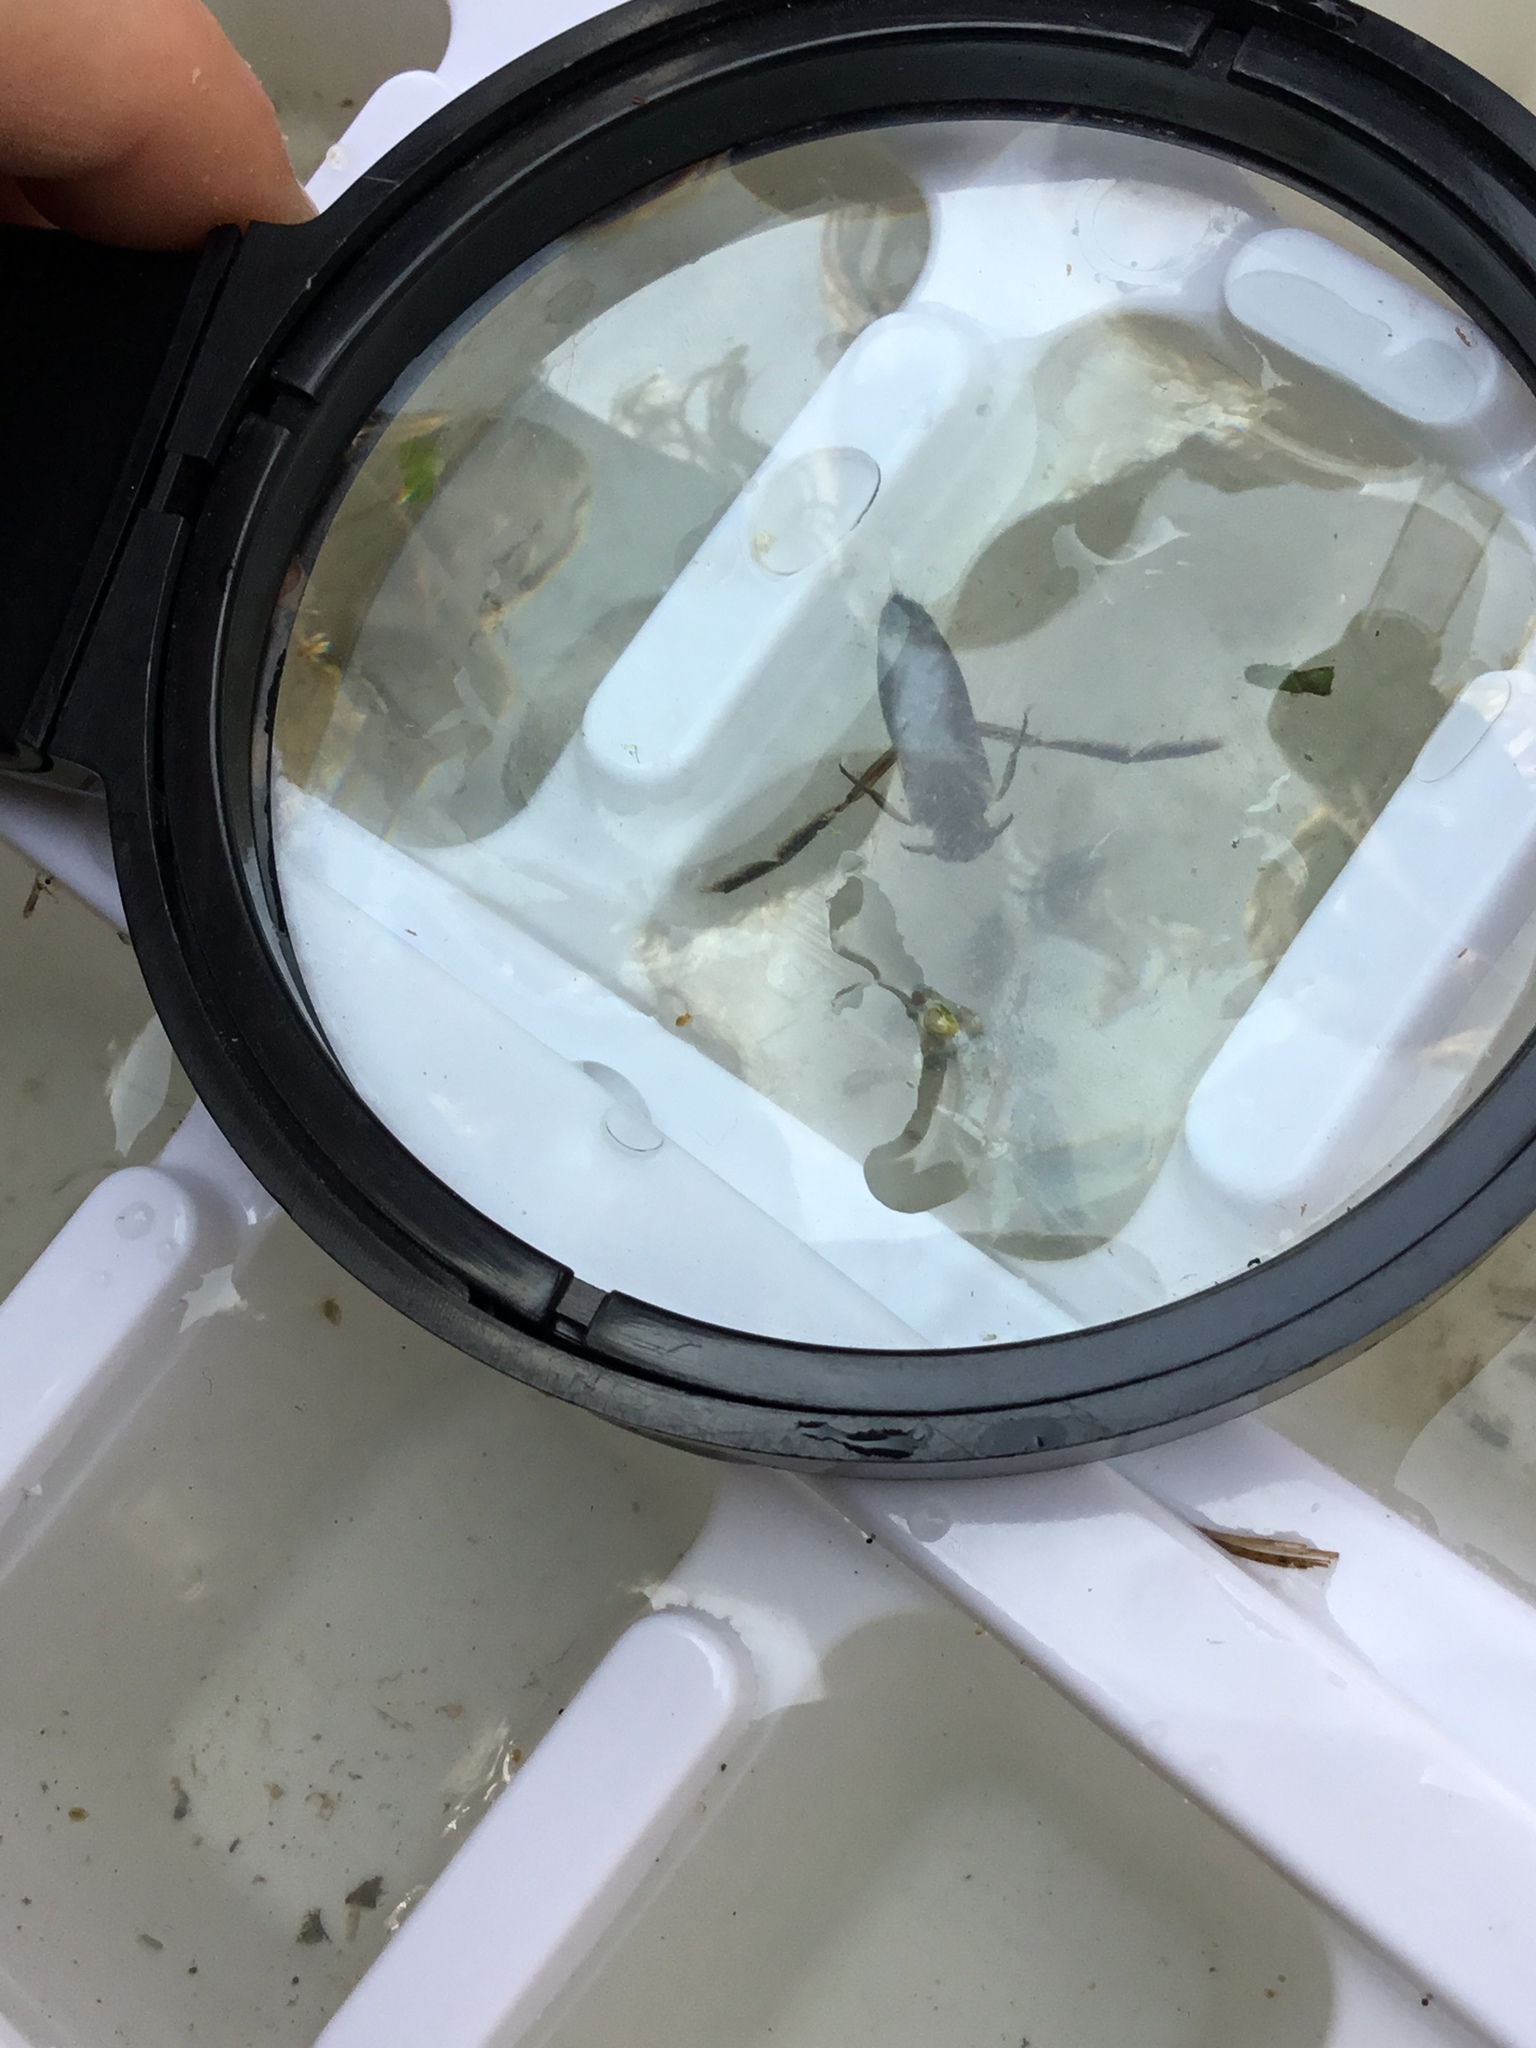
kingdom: Animalia
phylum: Arthropoda
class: Insecta
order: Hemiptera
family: Notonectidae
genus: Notonecta
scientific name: Notonecta
